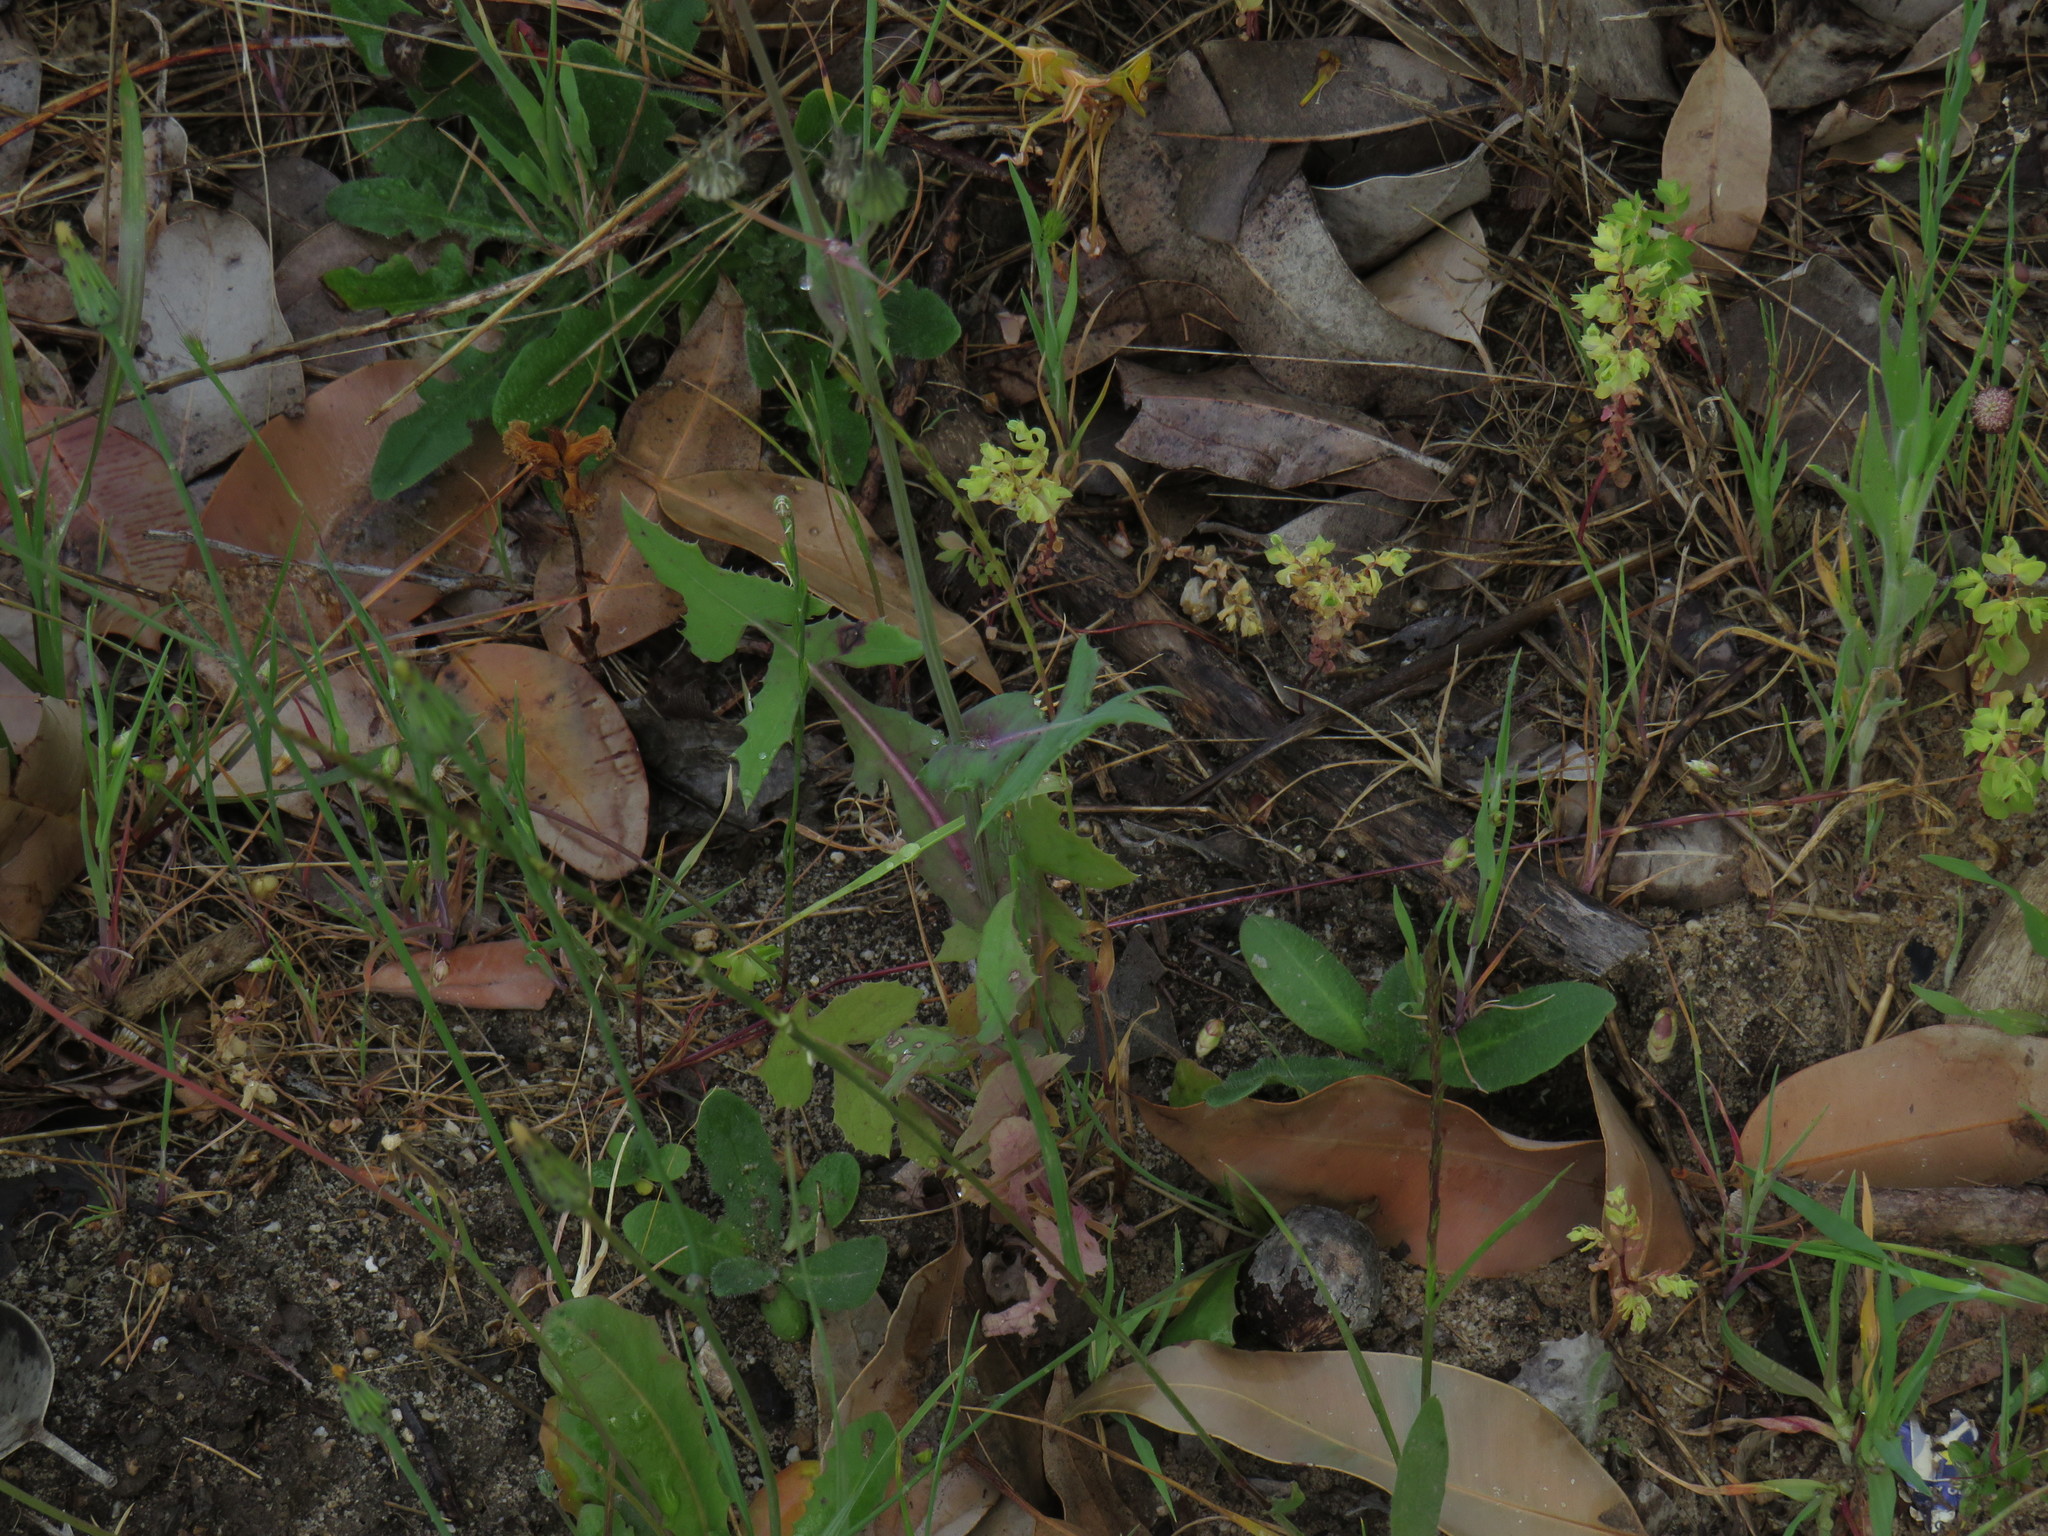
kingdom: Plantae
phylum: Tracheophyta
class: Magnoliopsida
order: Asterales
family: Asteraceae
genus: Sonchus
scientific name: Sonchus oleraceus
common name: Common sowthistle
